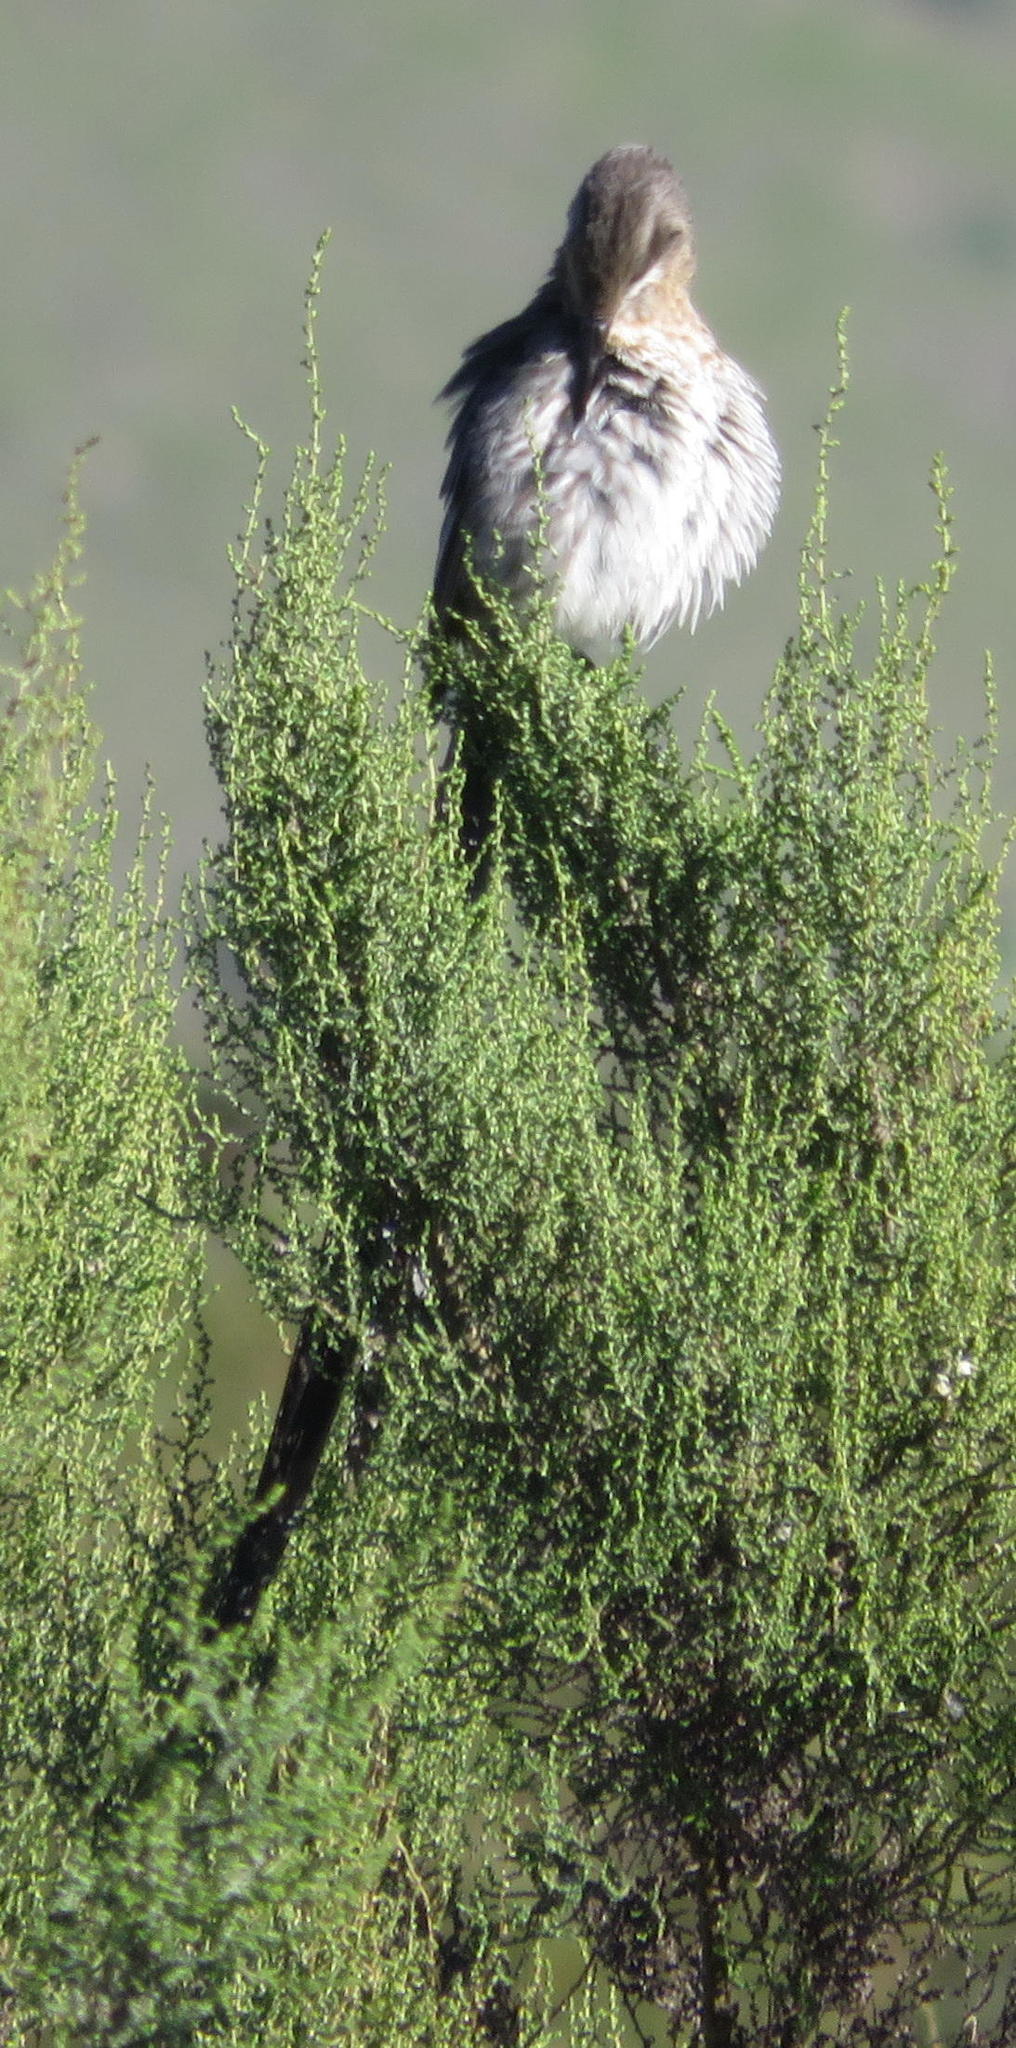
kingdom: Animalia
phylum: Chordata
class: Aves
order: Passeriformes
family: Promeropidae
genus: Promerops
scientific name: Promerops cafer
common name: Cape sugarbird
